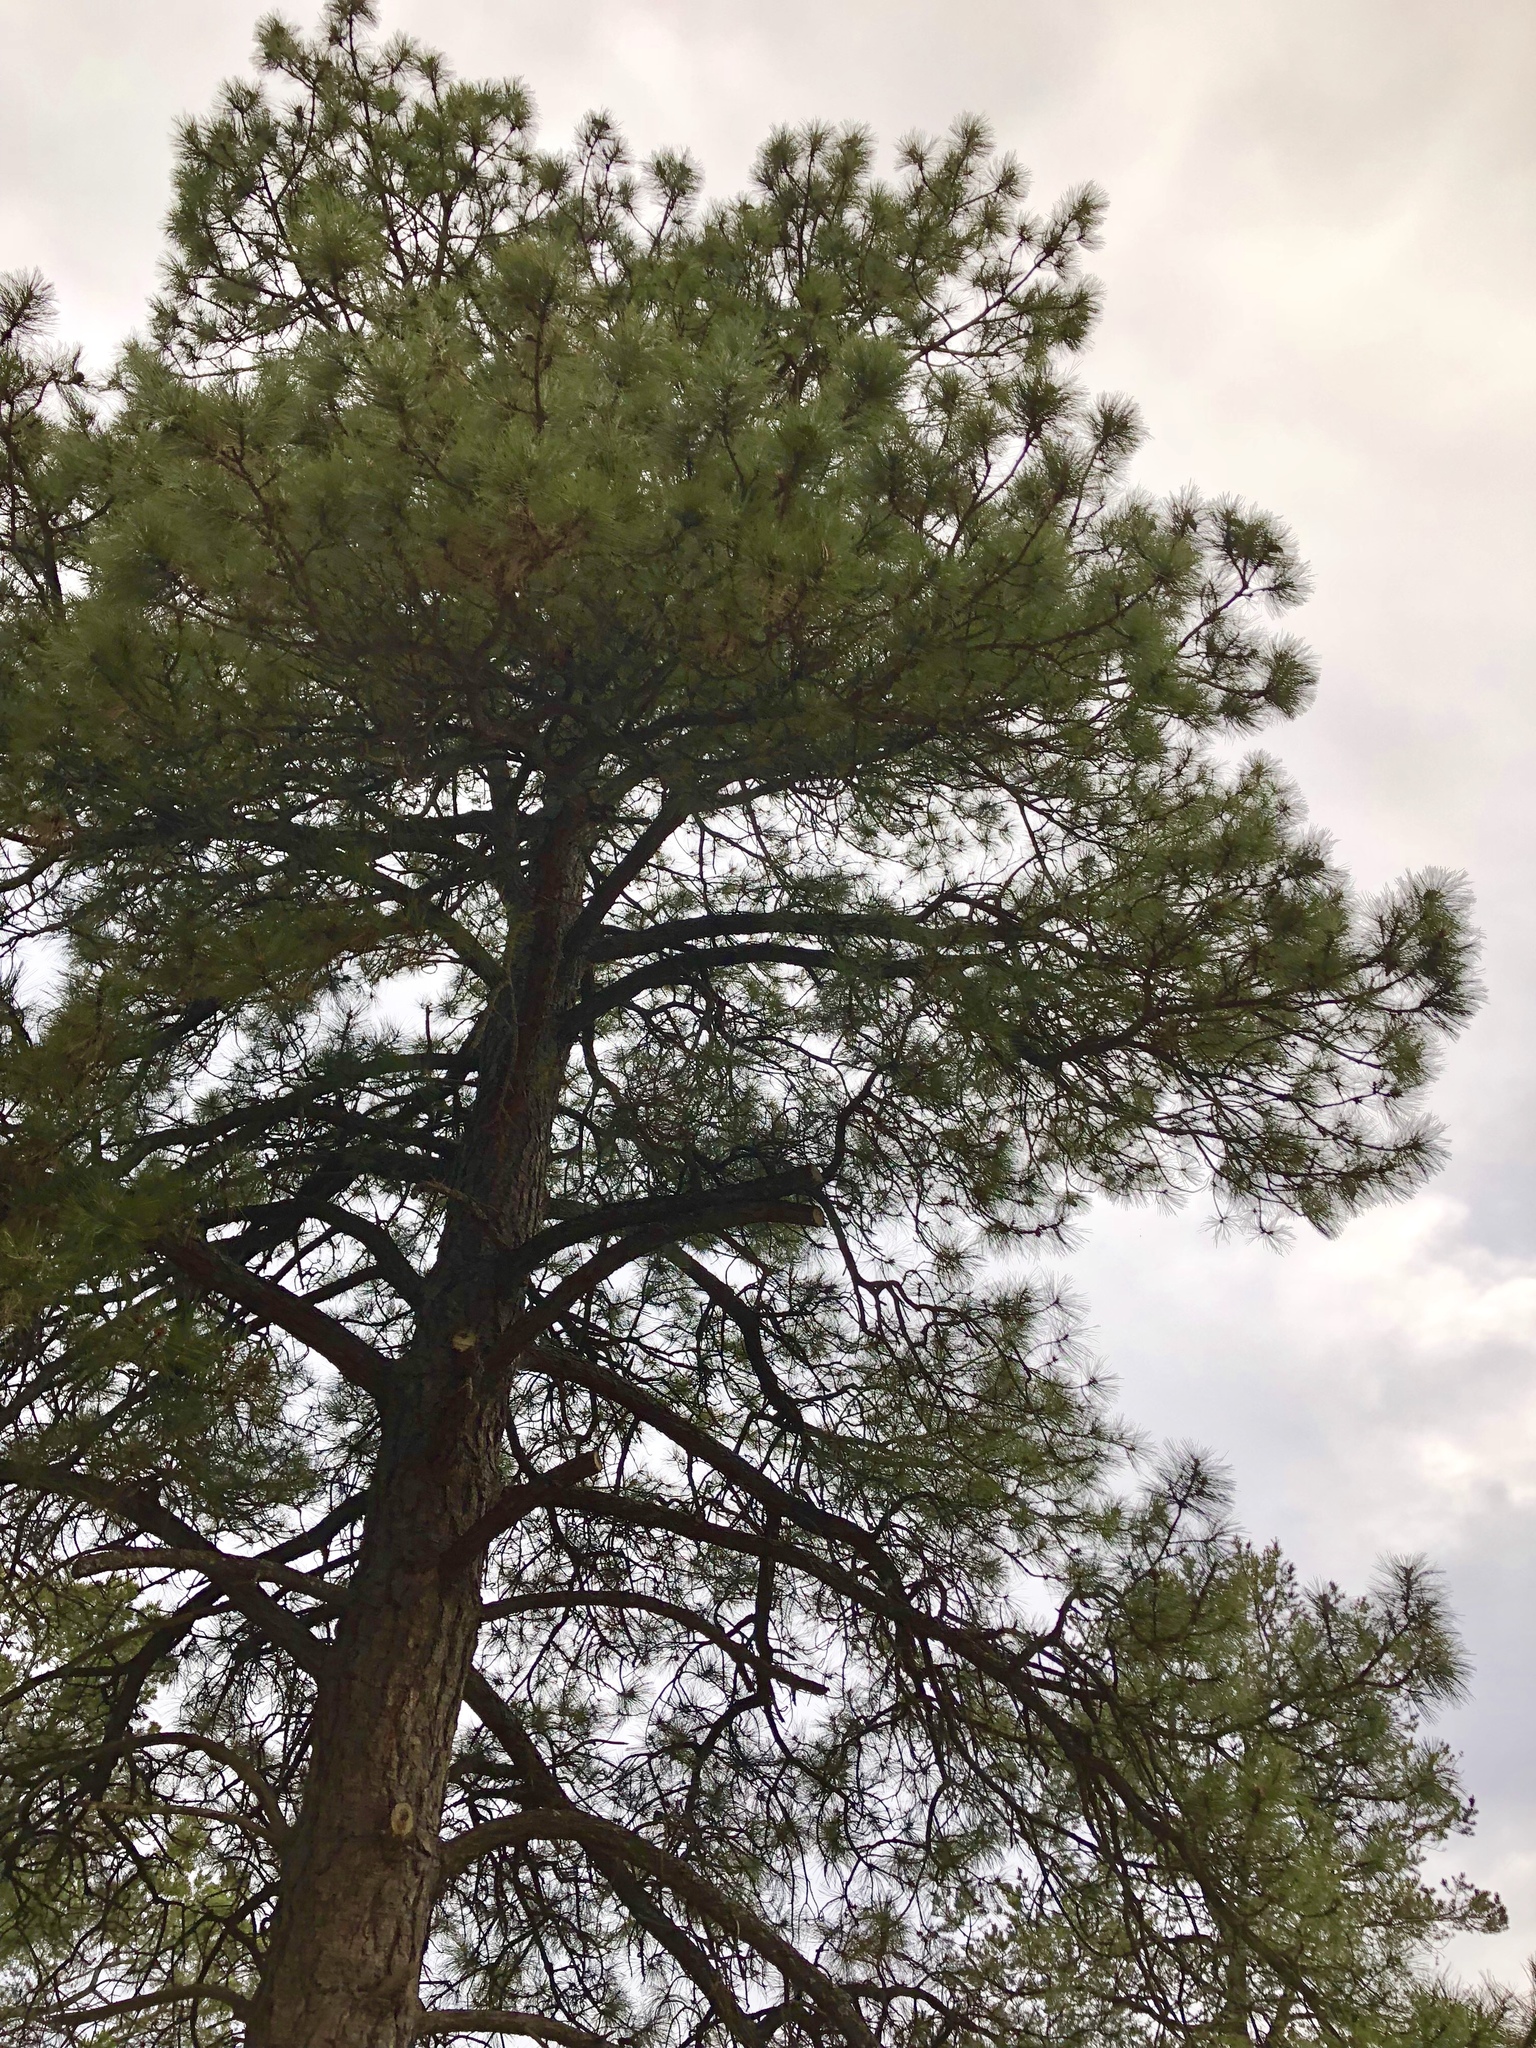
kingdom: Plantae
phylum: Tracheophyta
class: Pinopsida
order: Pinales
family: Pinaceae
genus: Pinus
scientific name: Pinus ponderosa
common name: Western yellow-pine
